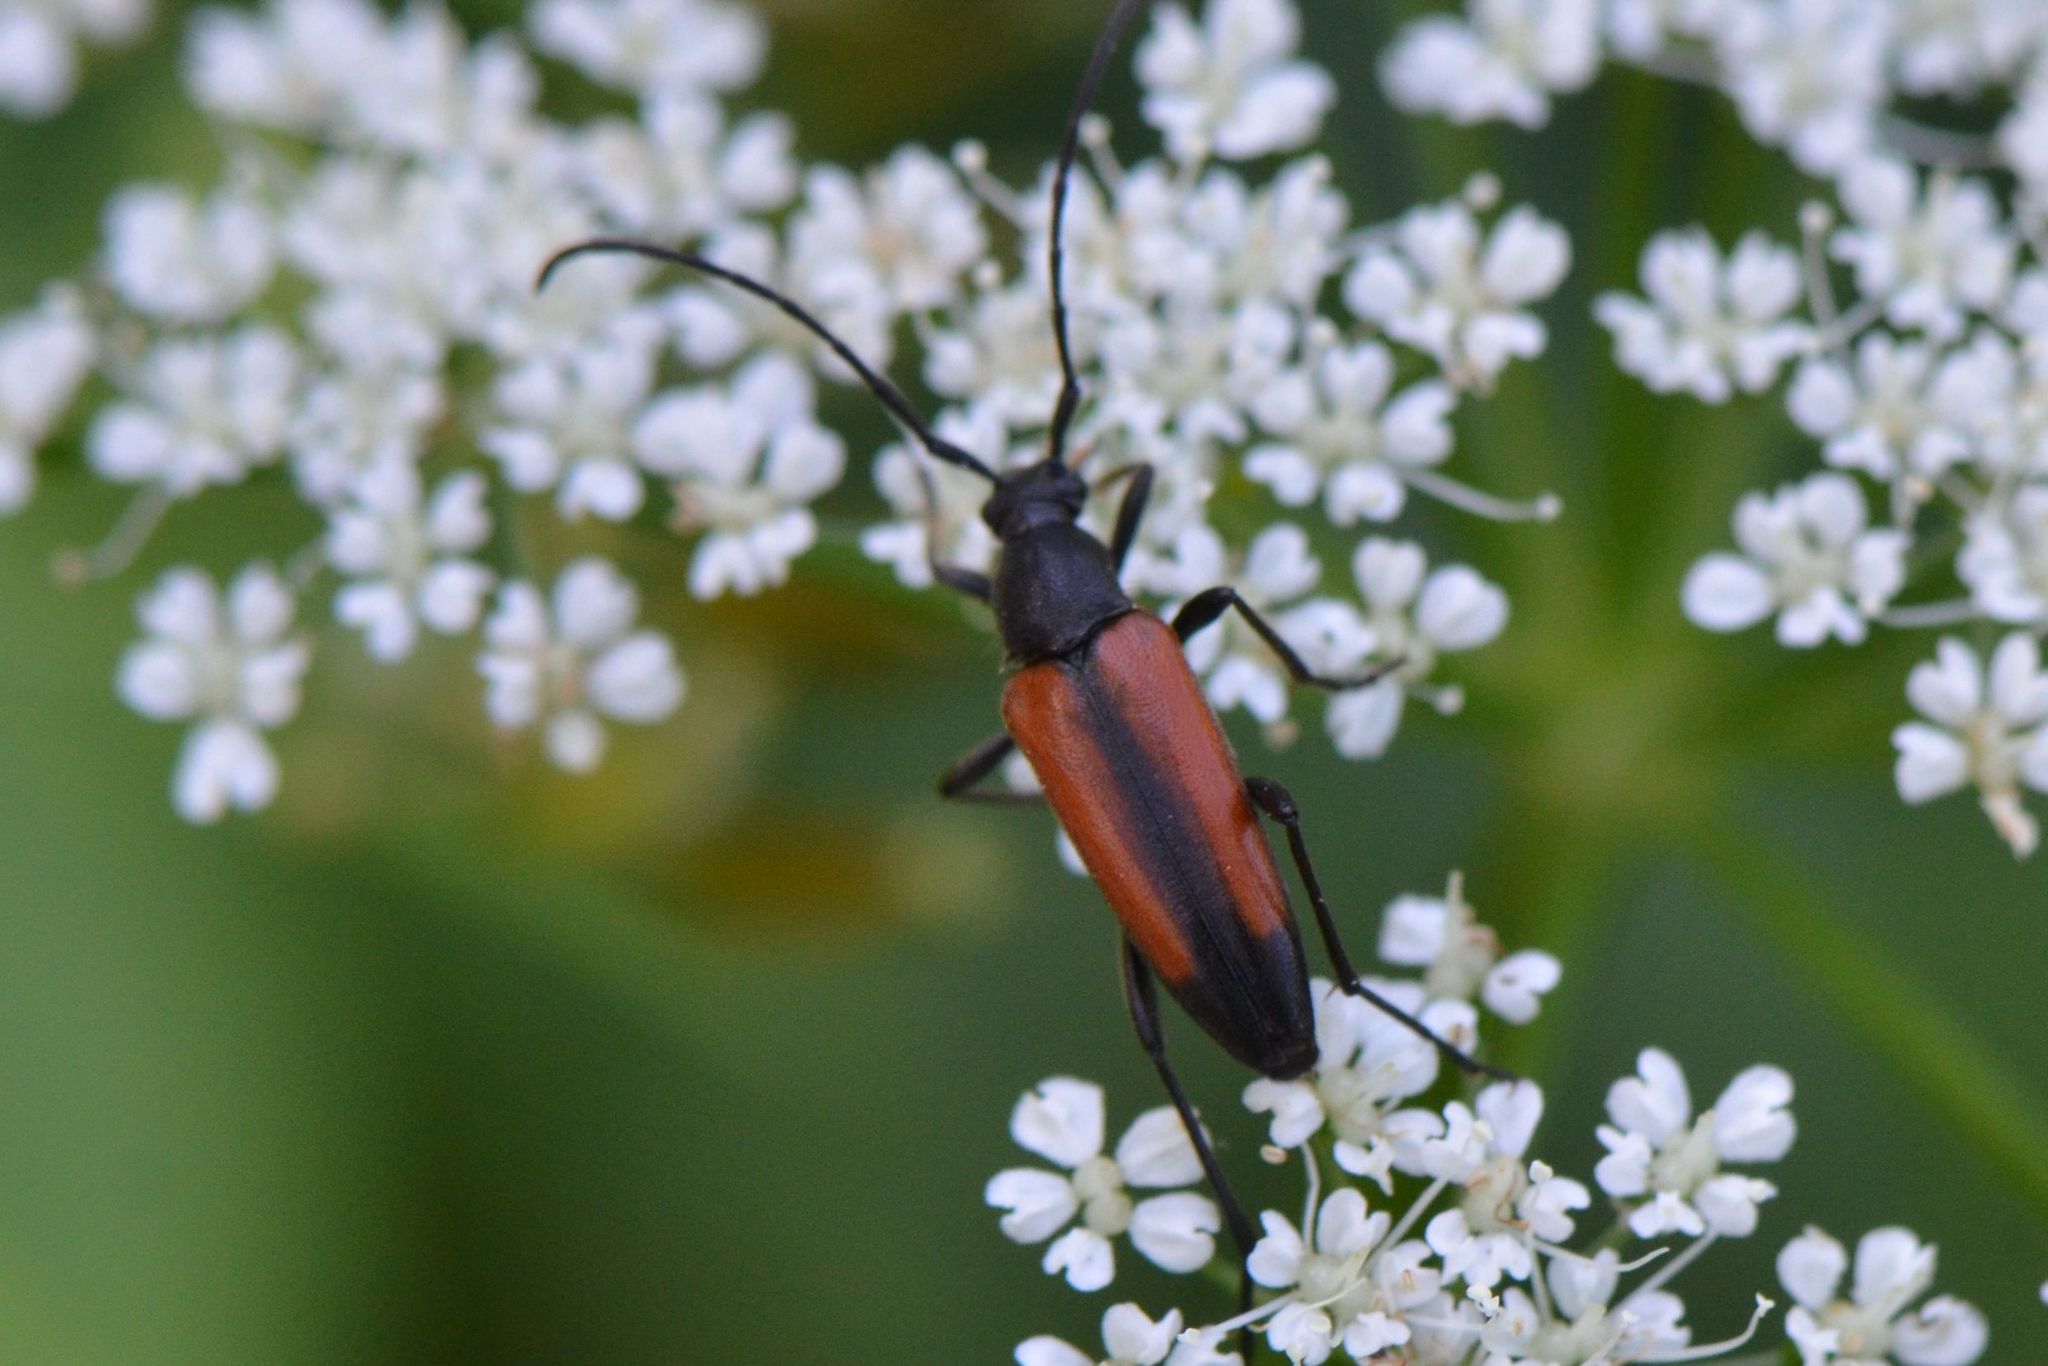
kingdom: Animalia
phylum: Arthropoda
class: Insecta
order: Coleoptera
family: Cerambycidae
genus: Stenurella
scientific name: Stenurella melanura
